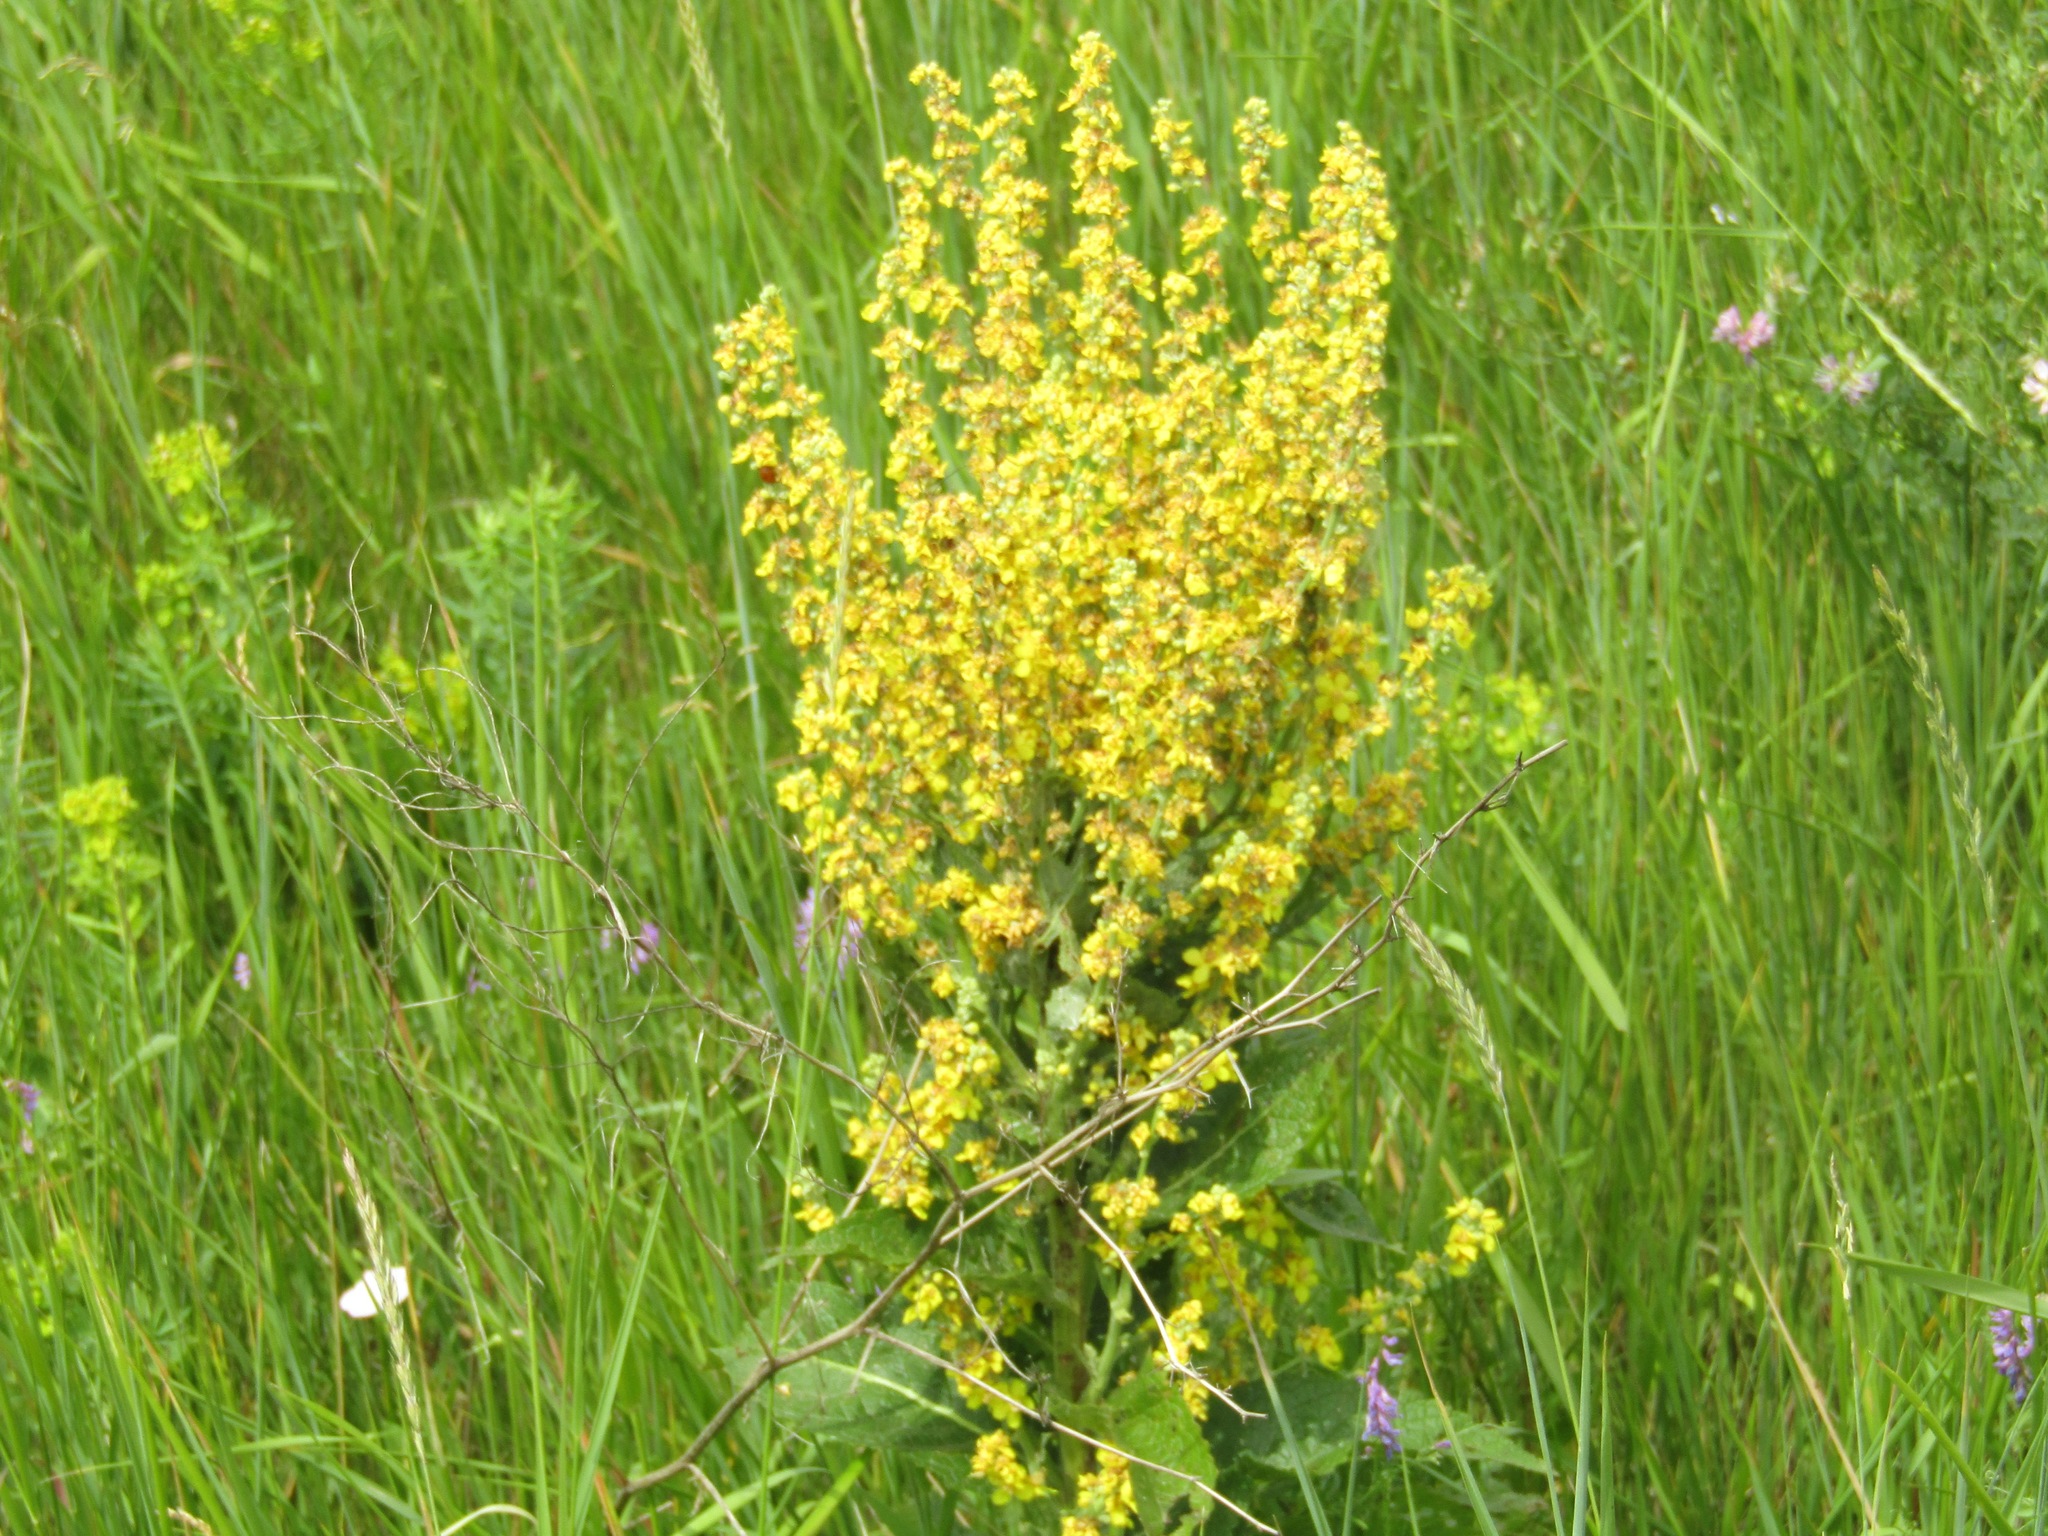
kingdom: Plantae
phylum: Tracheophyta
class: Magnoliopsida
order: Lamiales
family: Scrophulariaceae
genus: Verbascum
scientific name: Verbascum lychnitis
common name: White mullein
